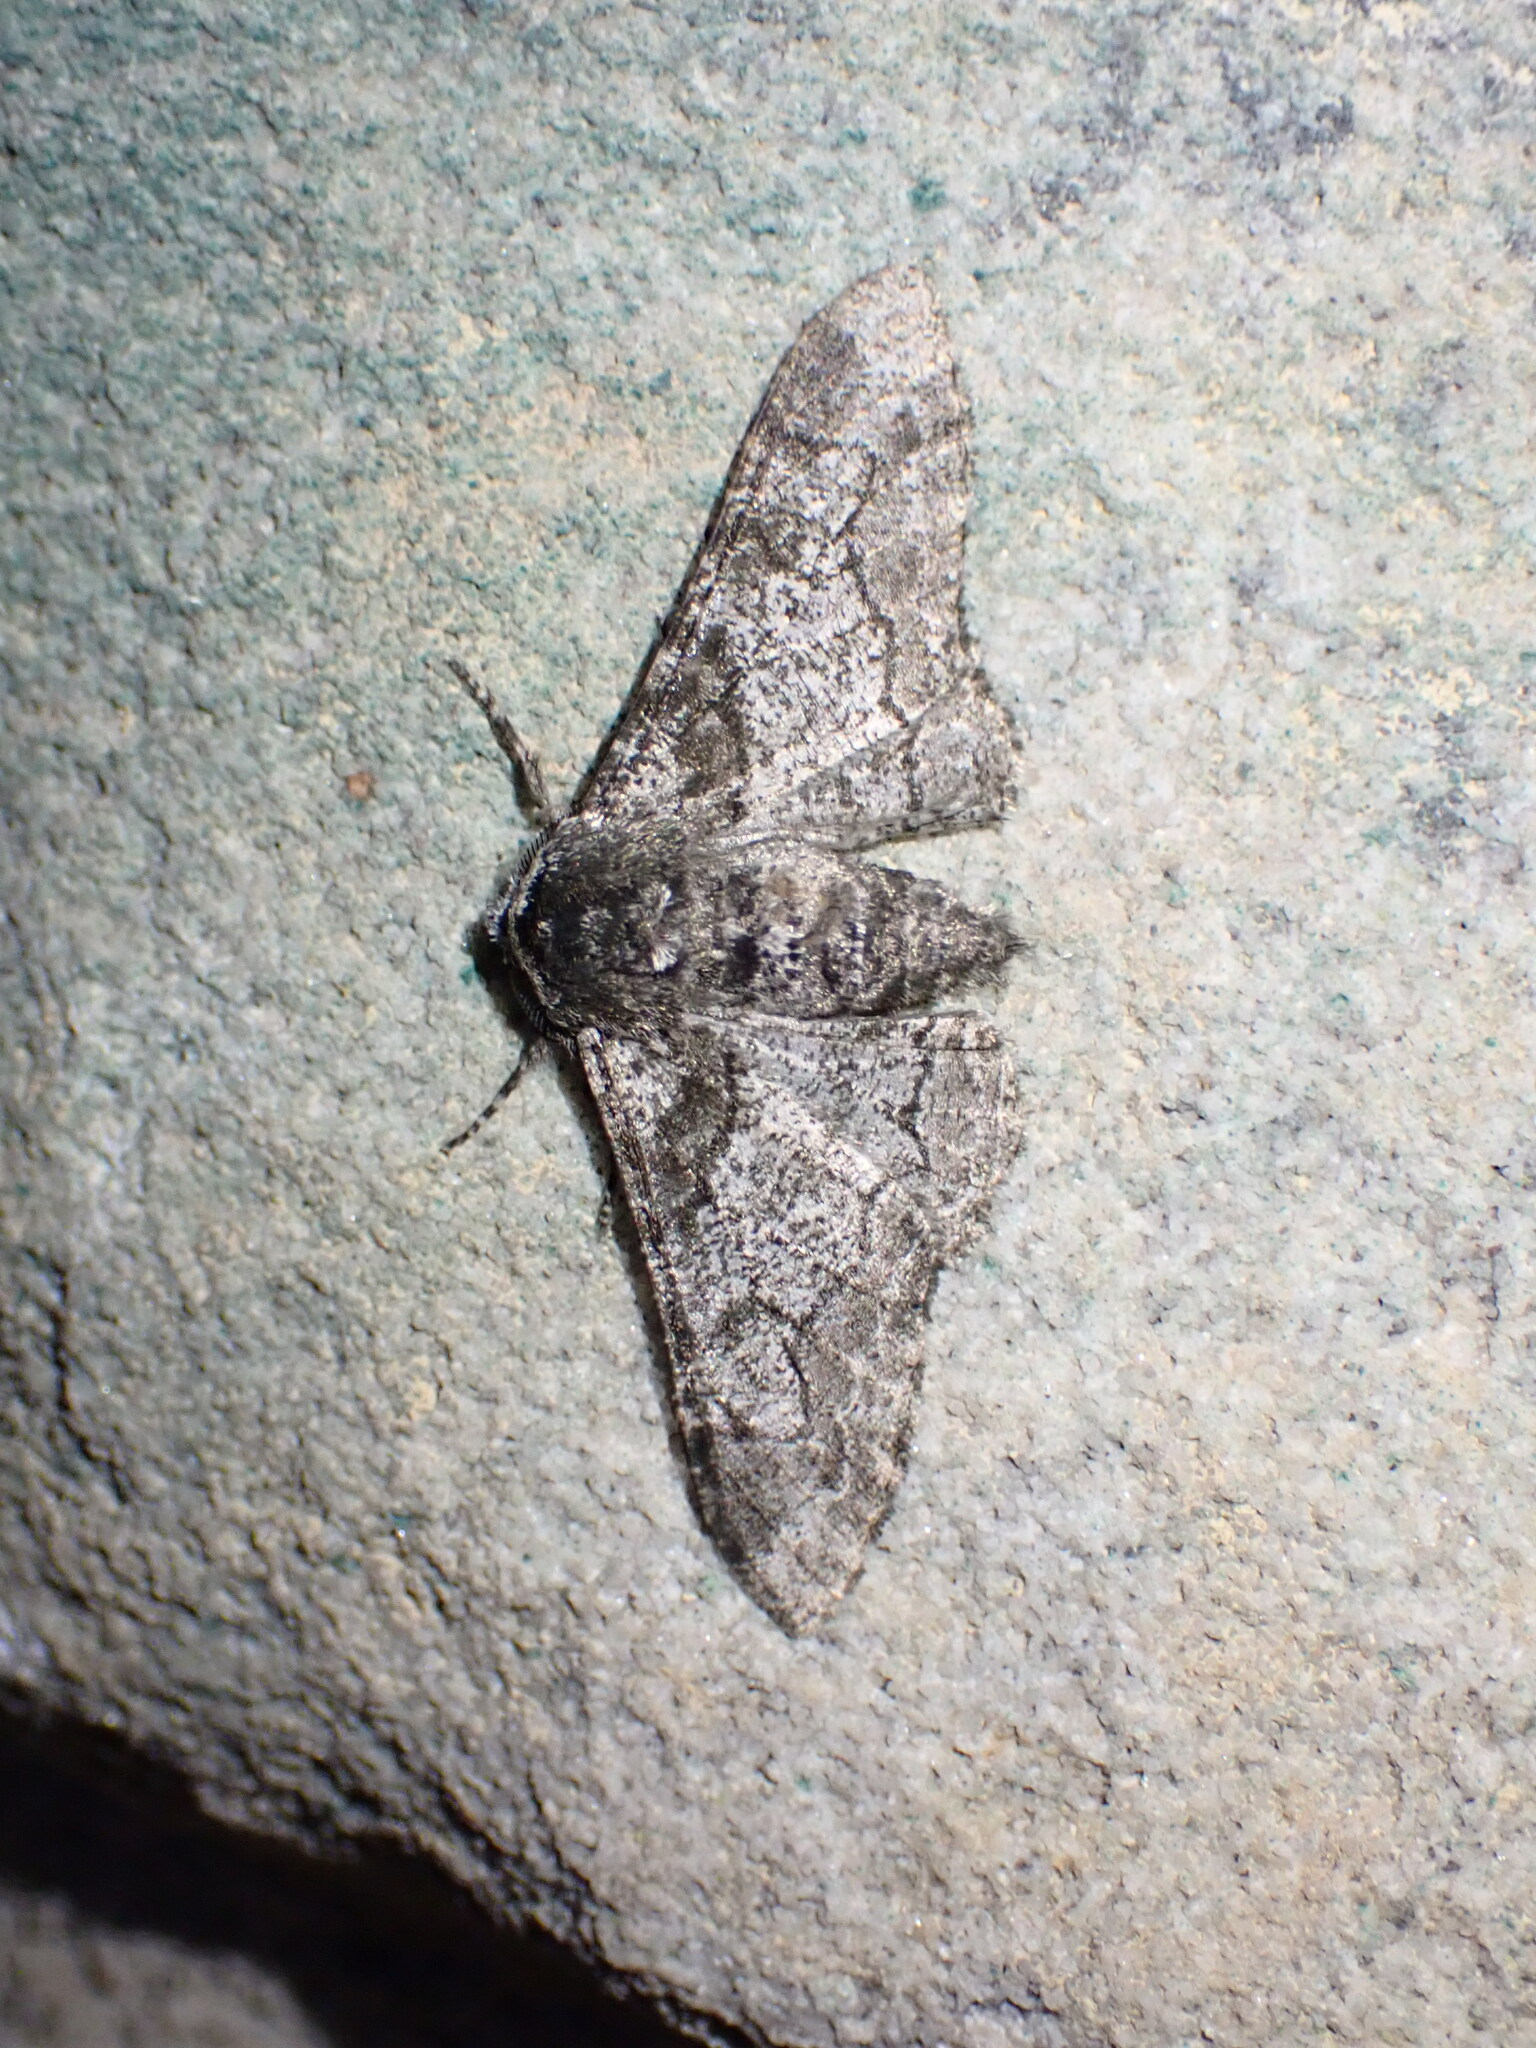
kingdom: Animalia
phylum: Arthropoda
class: Insecta
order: Lepidoptera
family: Geometridae
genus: Biston
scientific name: Biston betularia
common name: Peppered moth
